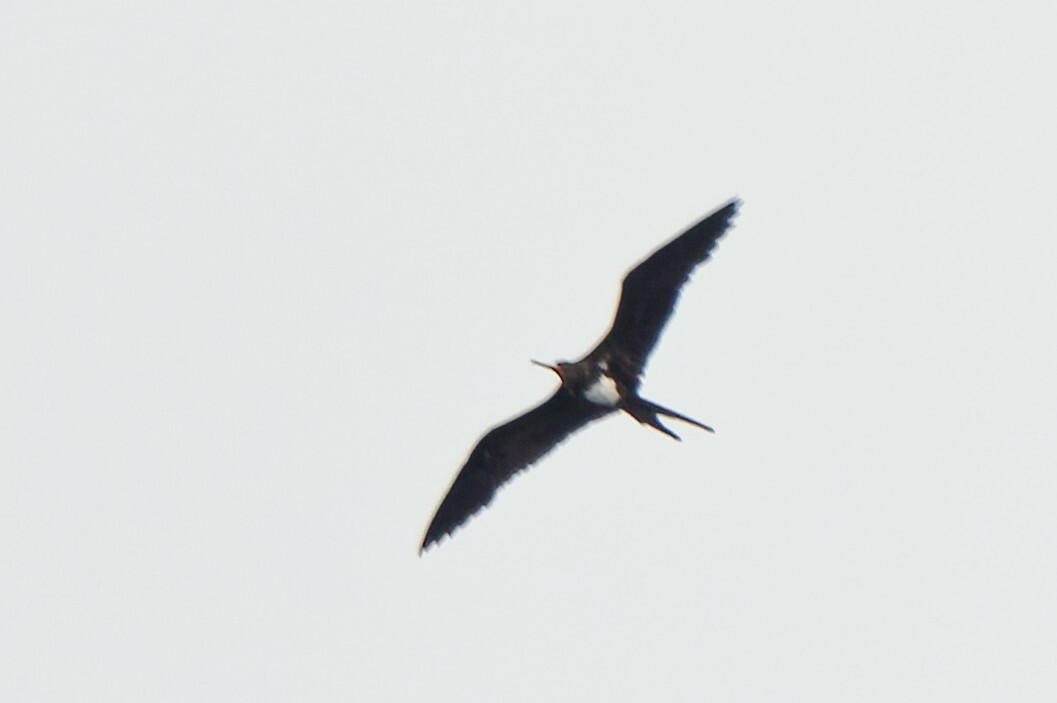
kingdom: Animalia
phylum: Chordata
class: Aves
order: Suliformes
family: Fregatidae
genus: Fregata
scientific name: Fregata andrewsi
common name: Christmas frigatebird
